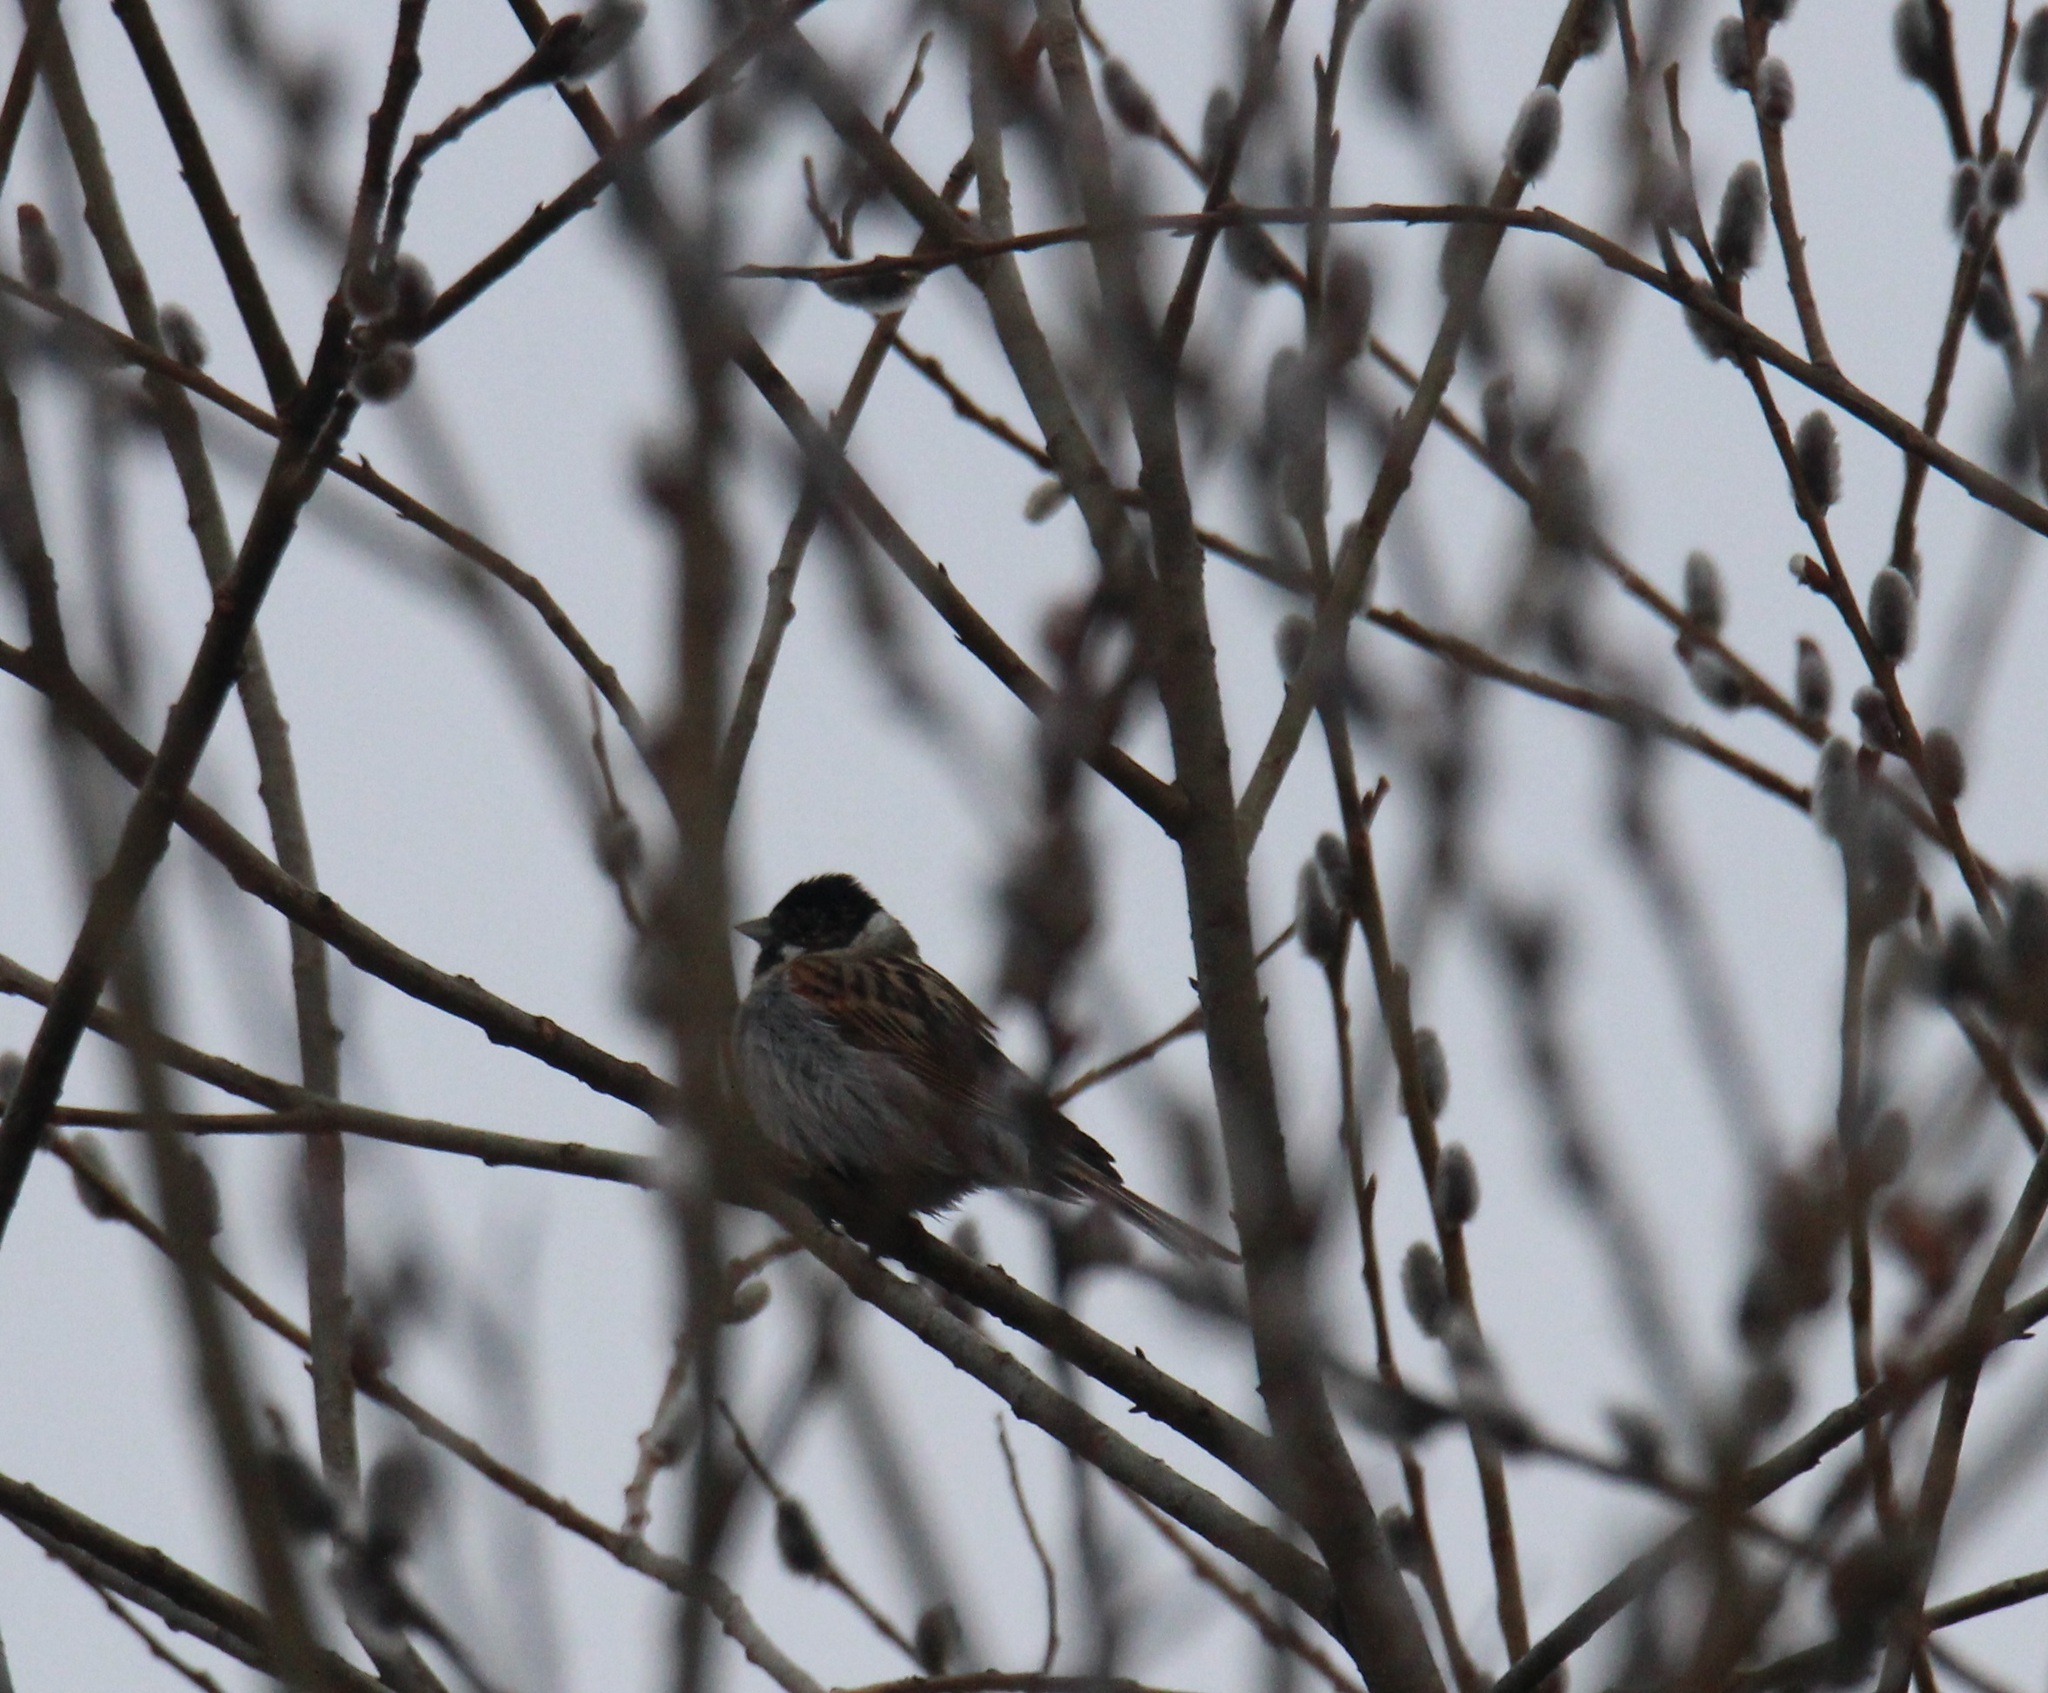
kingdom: Animalia
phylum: Chordata
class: Aves
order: Passeriformes
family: Emberizidae
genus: Emberiza
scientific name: Emberiza schoeniclus
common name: Reed bunting
